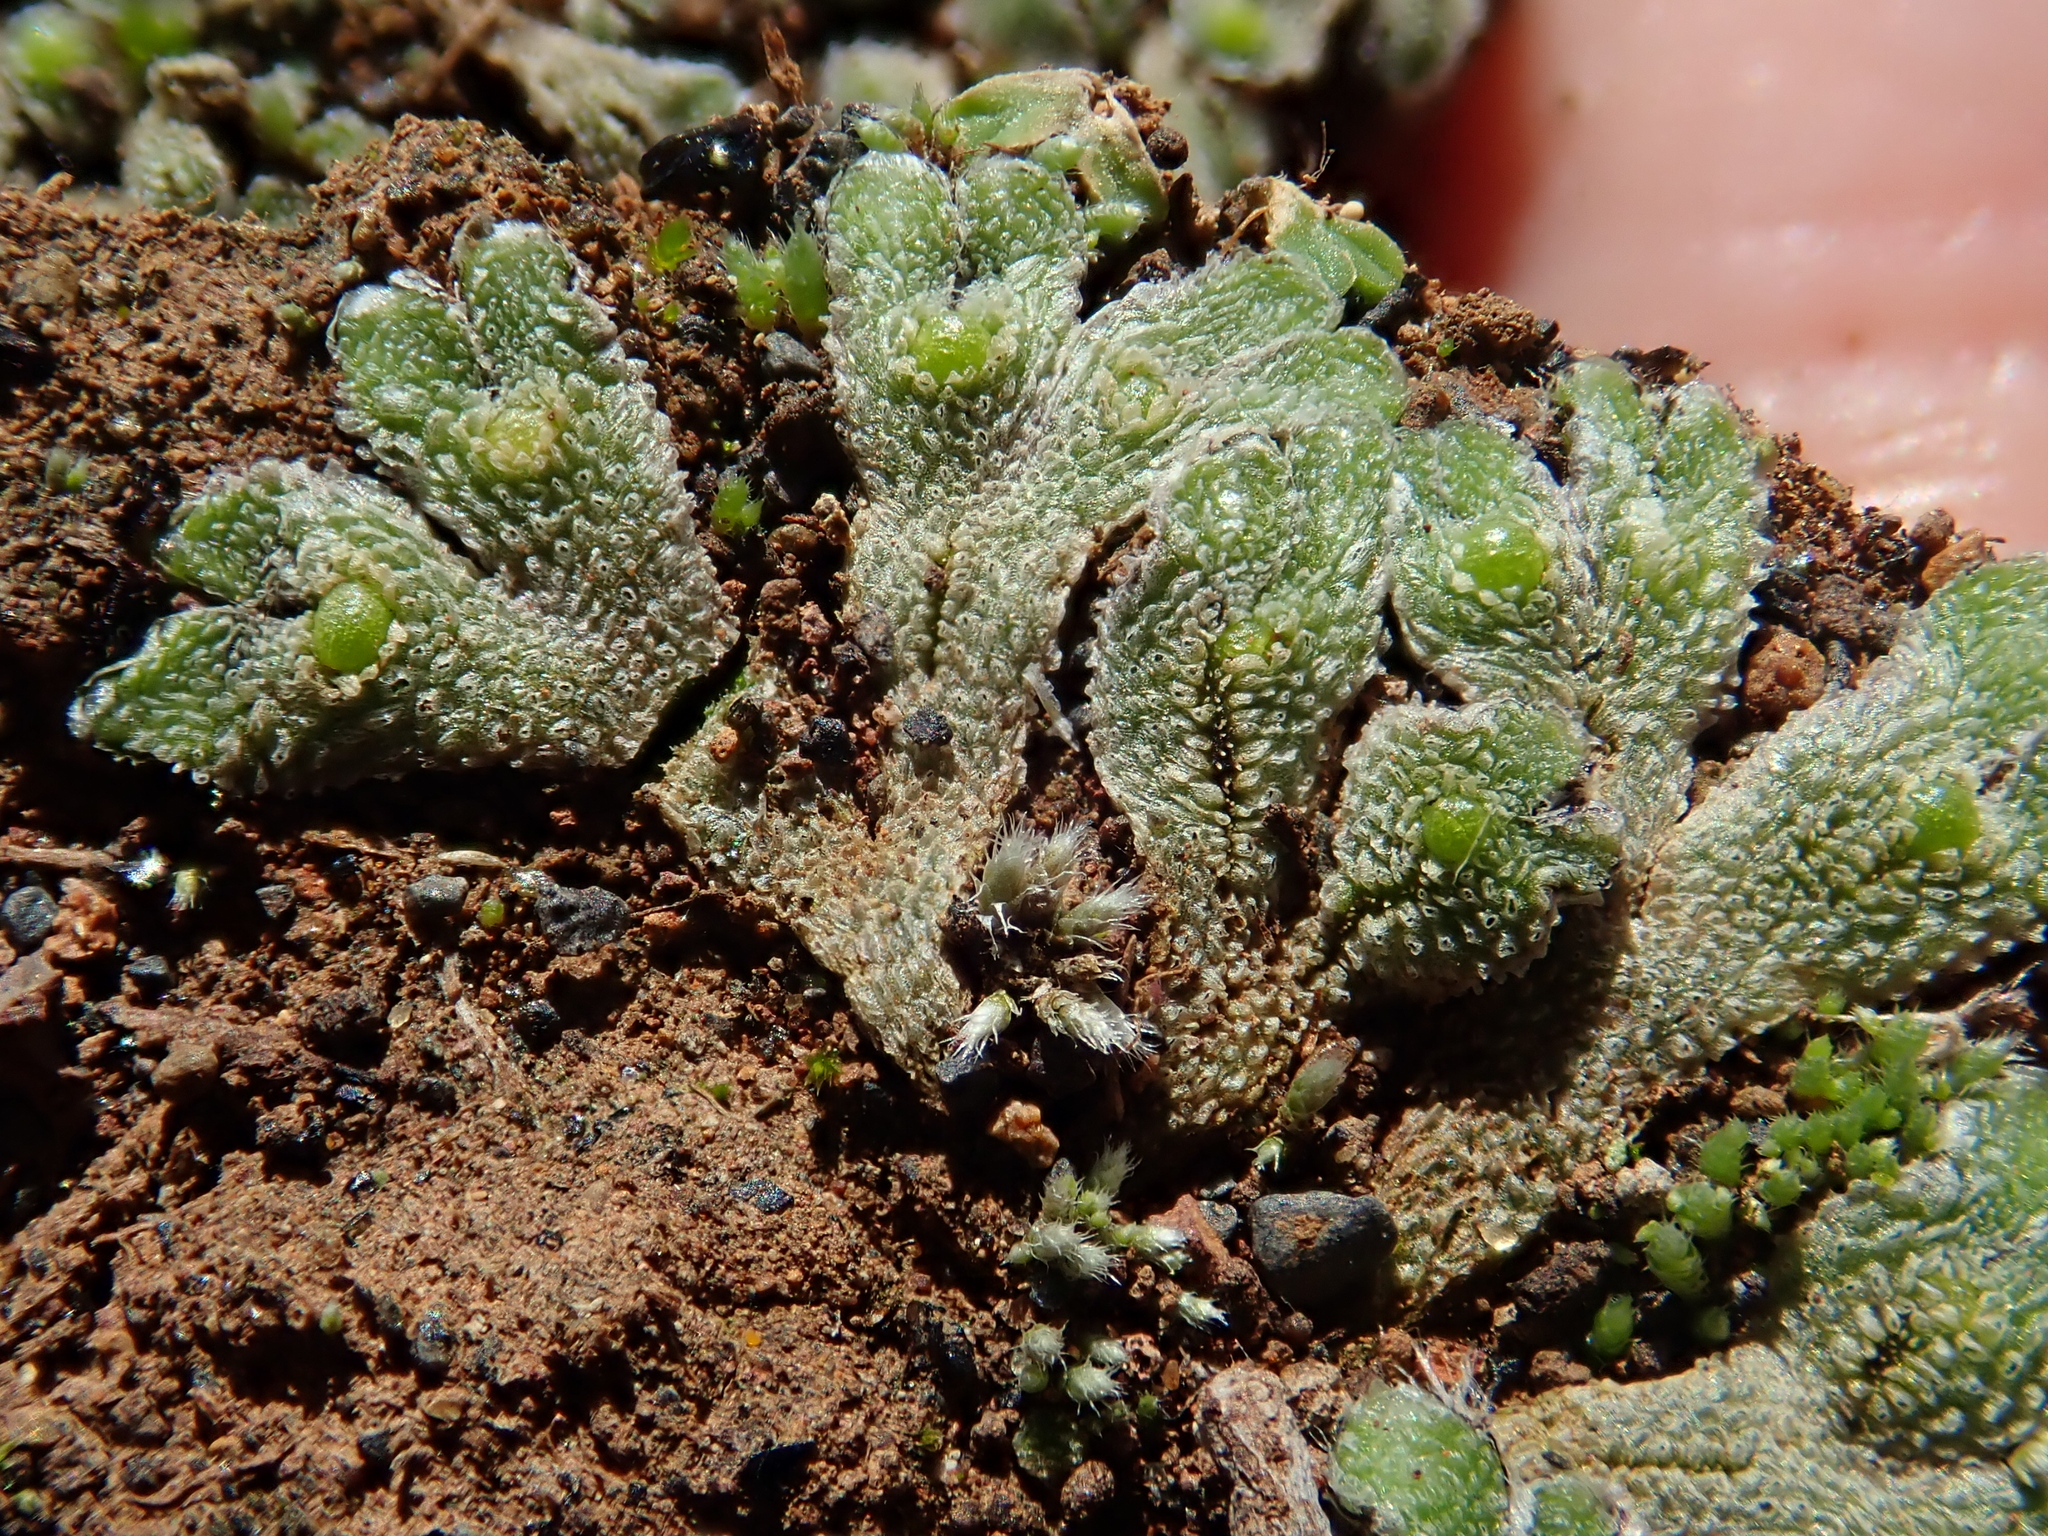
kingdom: Plantae
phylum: Marchantiophyta
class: Marchantiopsida
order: Marchantiales
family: Corsiniaceae
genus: Exormotheca
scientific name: Exormotheca pustulosa
